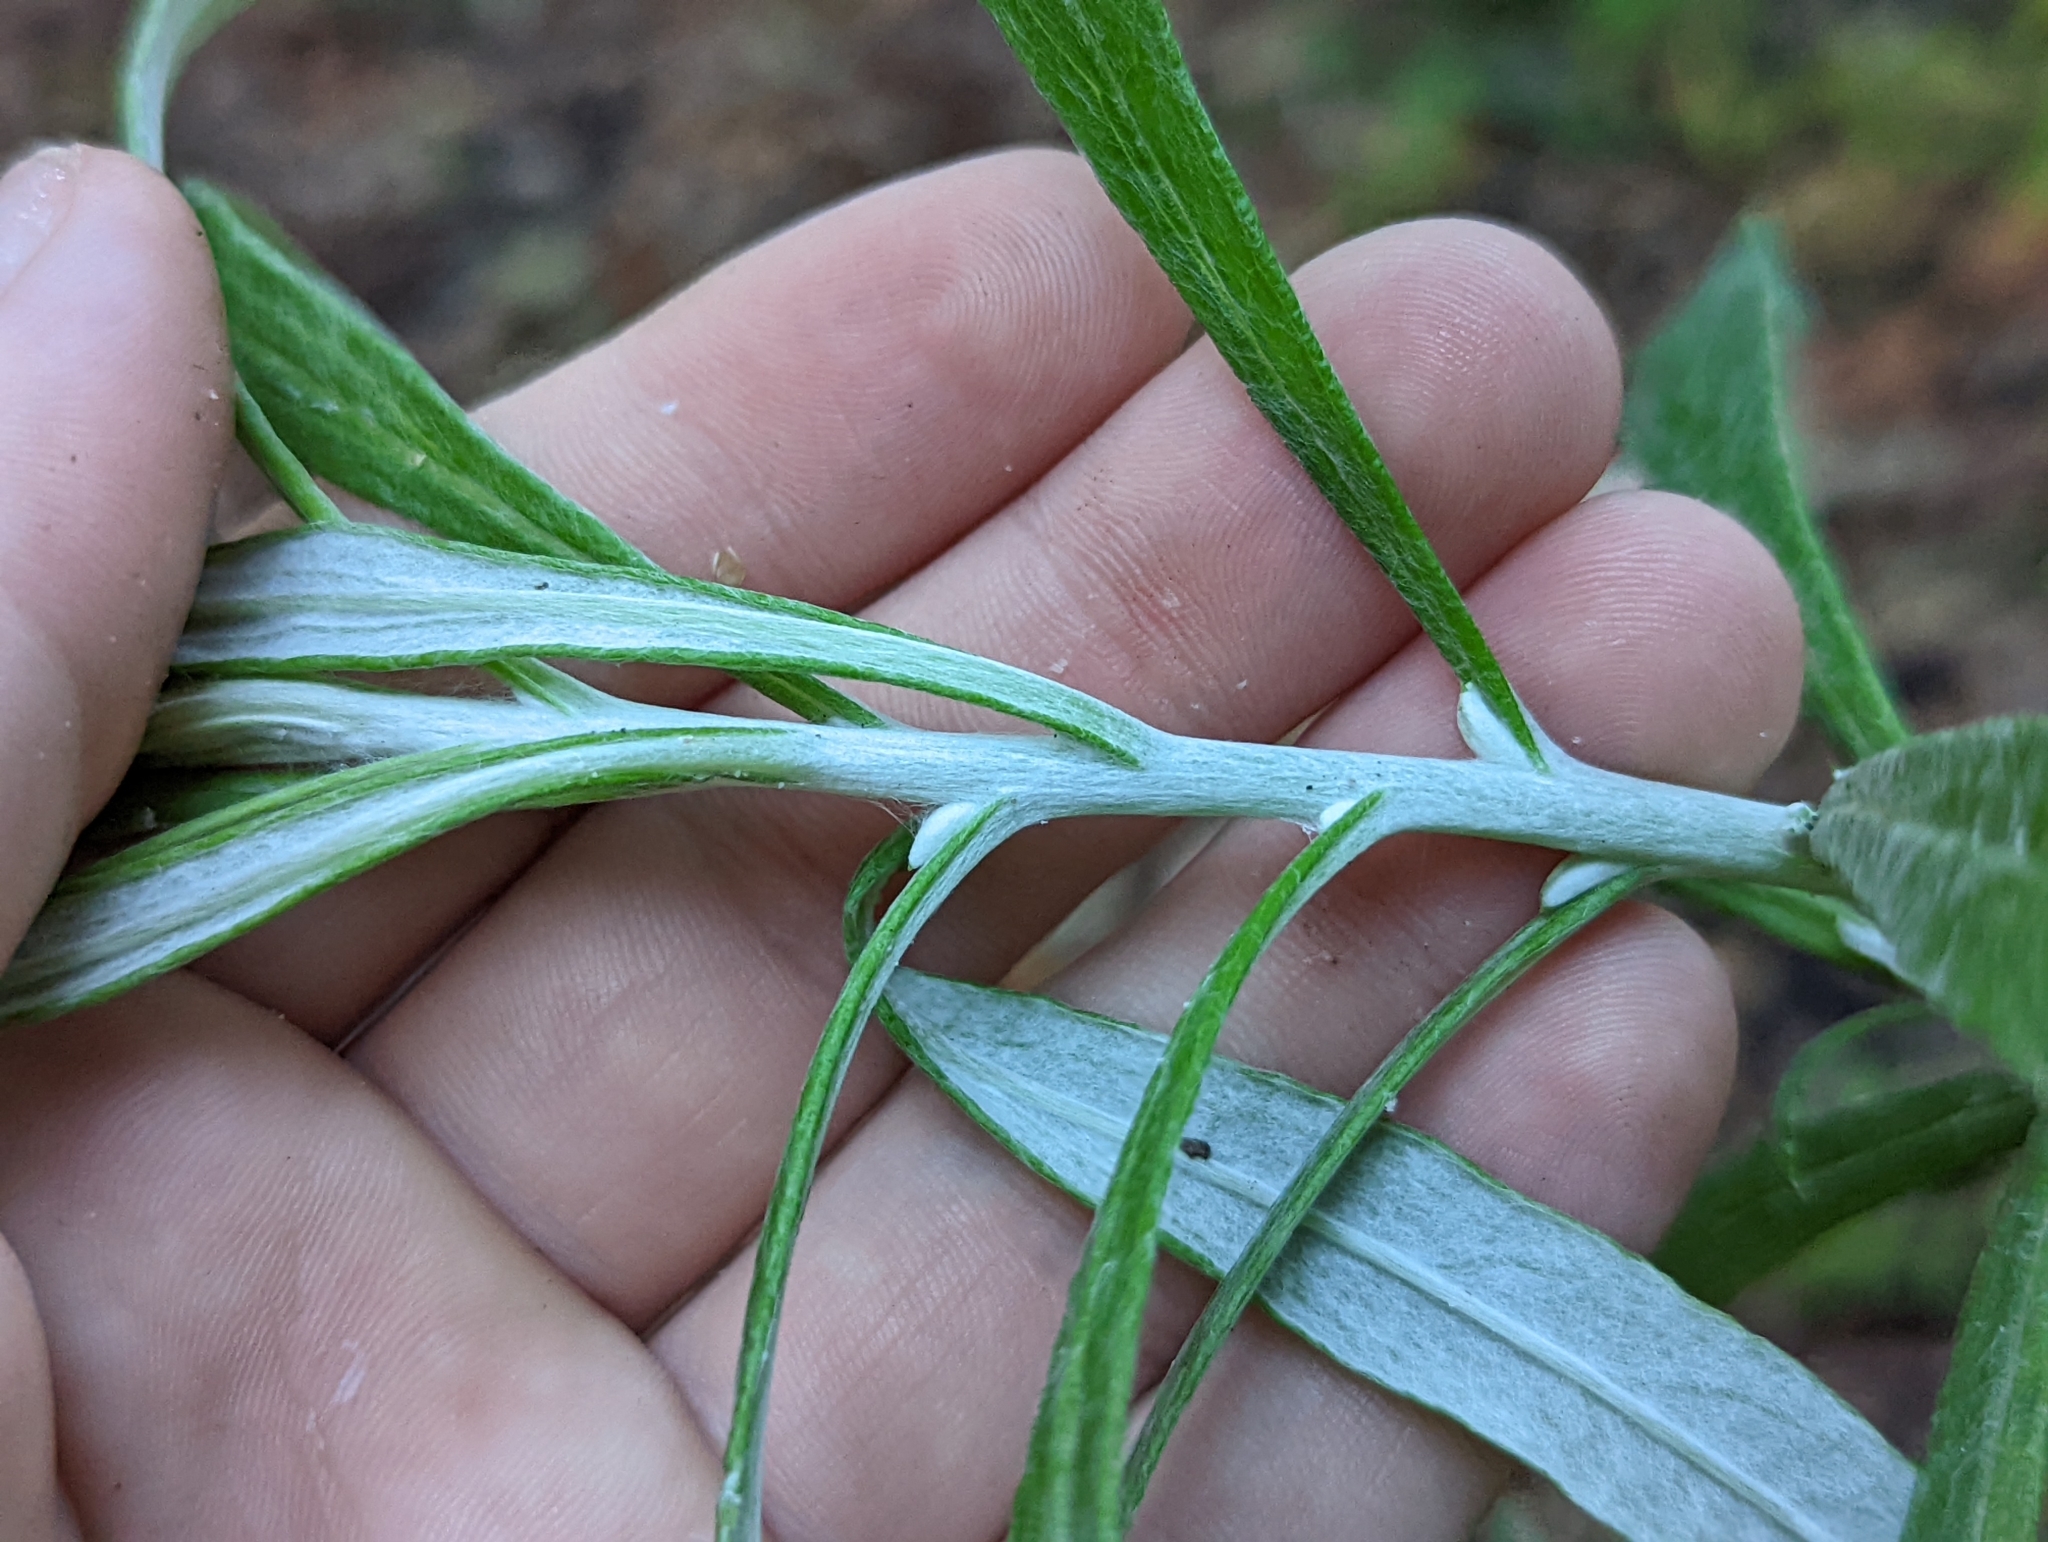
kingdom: Plantae
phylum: Tracheophyta
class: Magnoliopsida
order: Asterales
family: Asteraceae
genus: Pseudognaphalium
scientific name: Pseudognaphalium obtusifolium
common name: Eastern rabbit-tobacco
